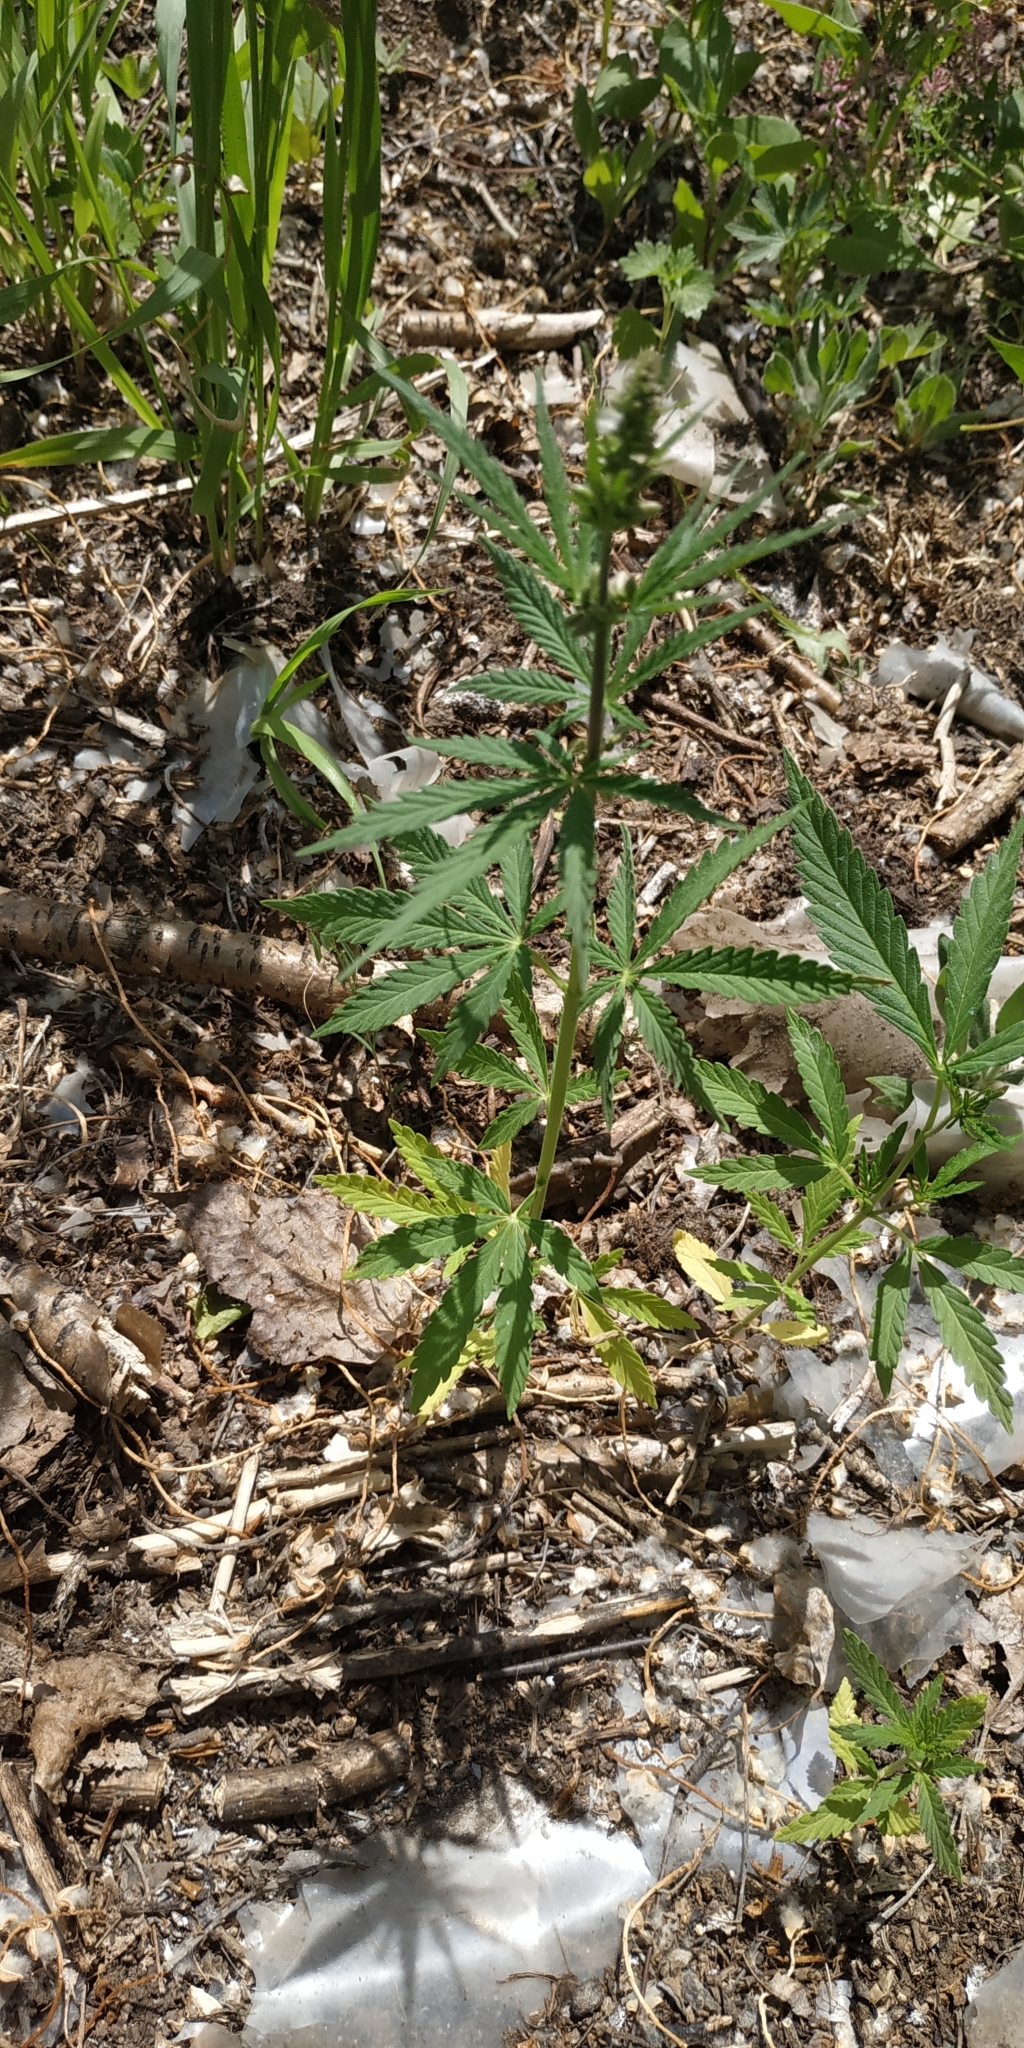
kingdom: Plantae
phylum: Tracheophyta
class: Magnoliopsida
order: Rosales
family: Cannabaceae
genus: Cannabis
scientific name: Cannabis sativa
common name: Hemp
